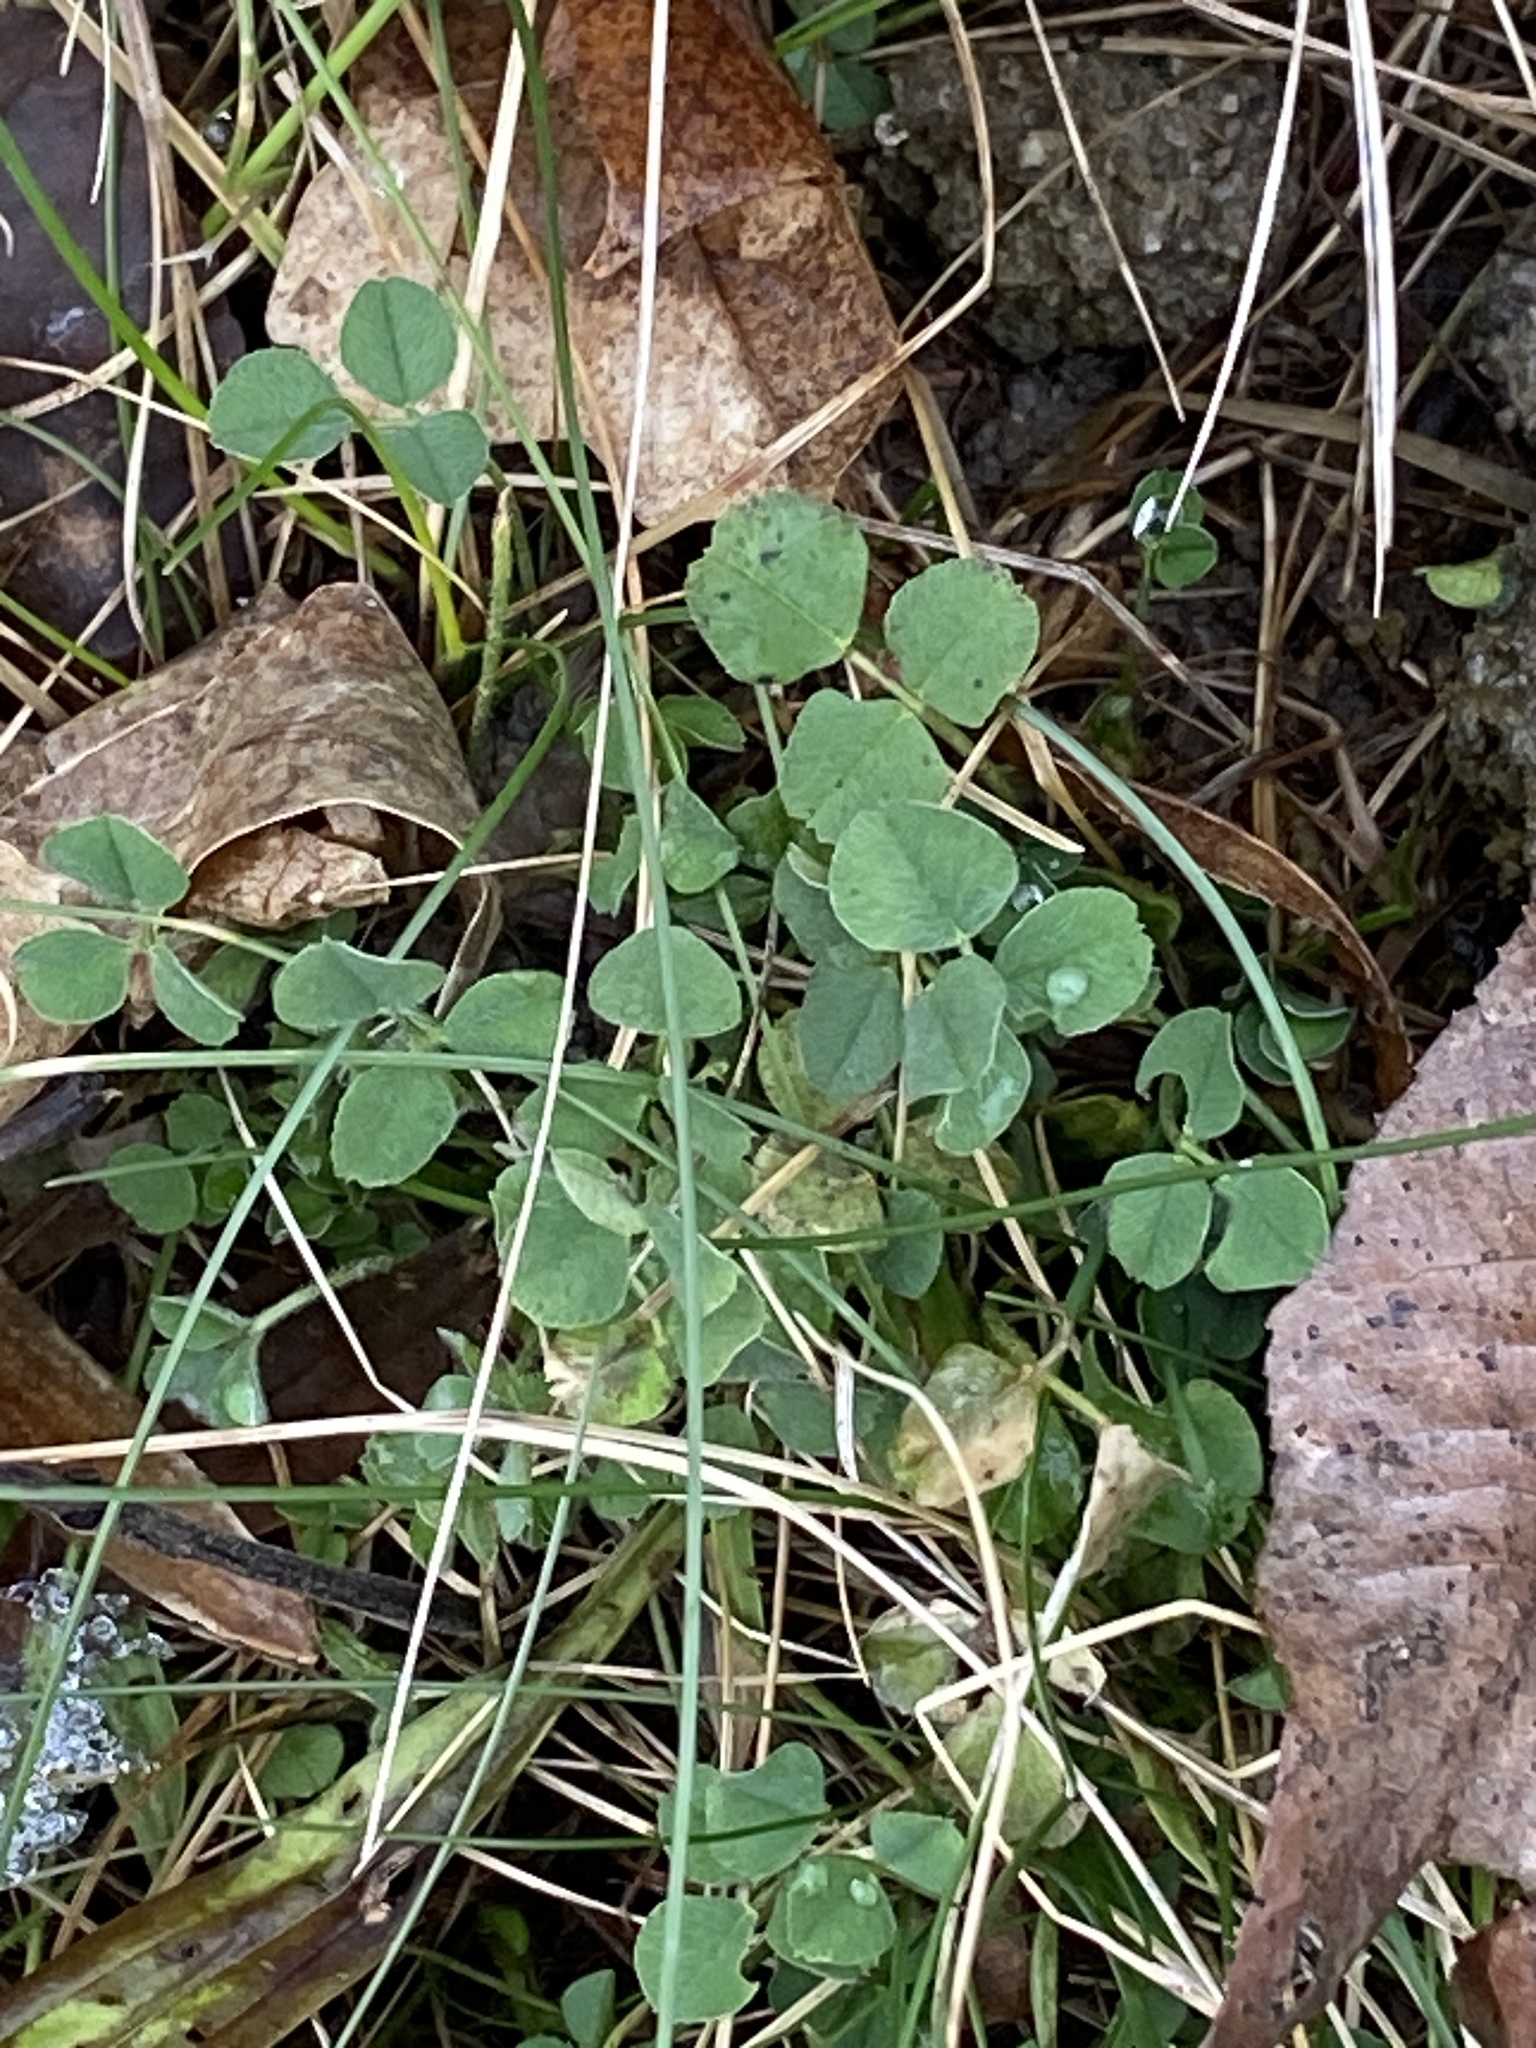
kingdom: Plantae
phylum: Tracheophyta
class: Magnoliopsida
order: Fabales
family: Fabaceae
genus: Medicago
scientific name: Medicago lupulina
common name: Black medick
